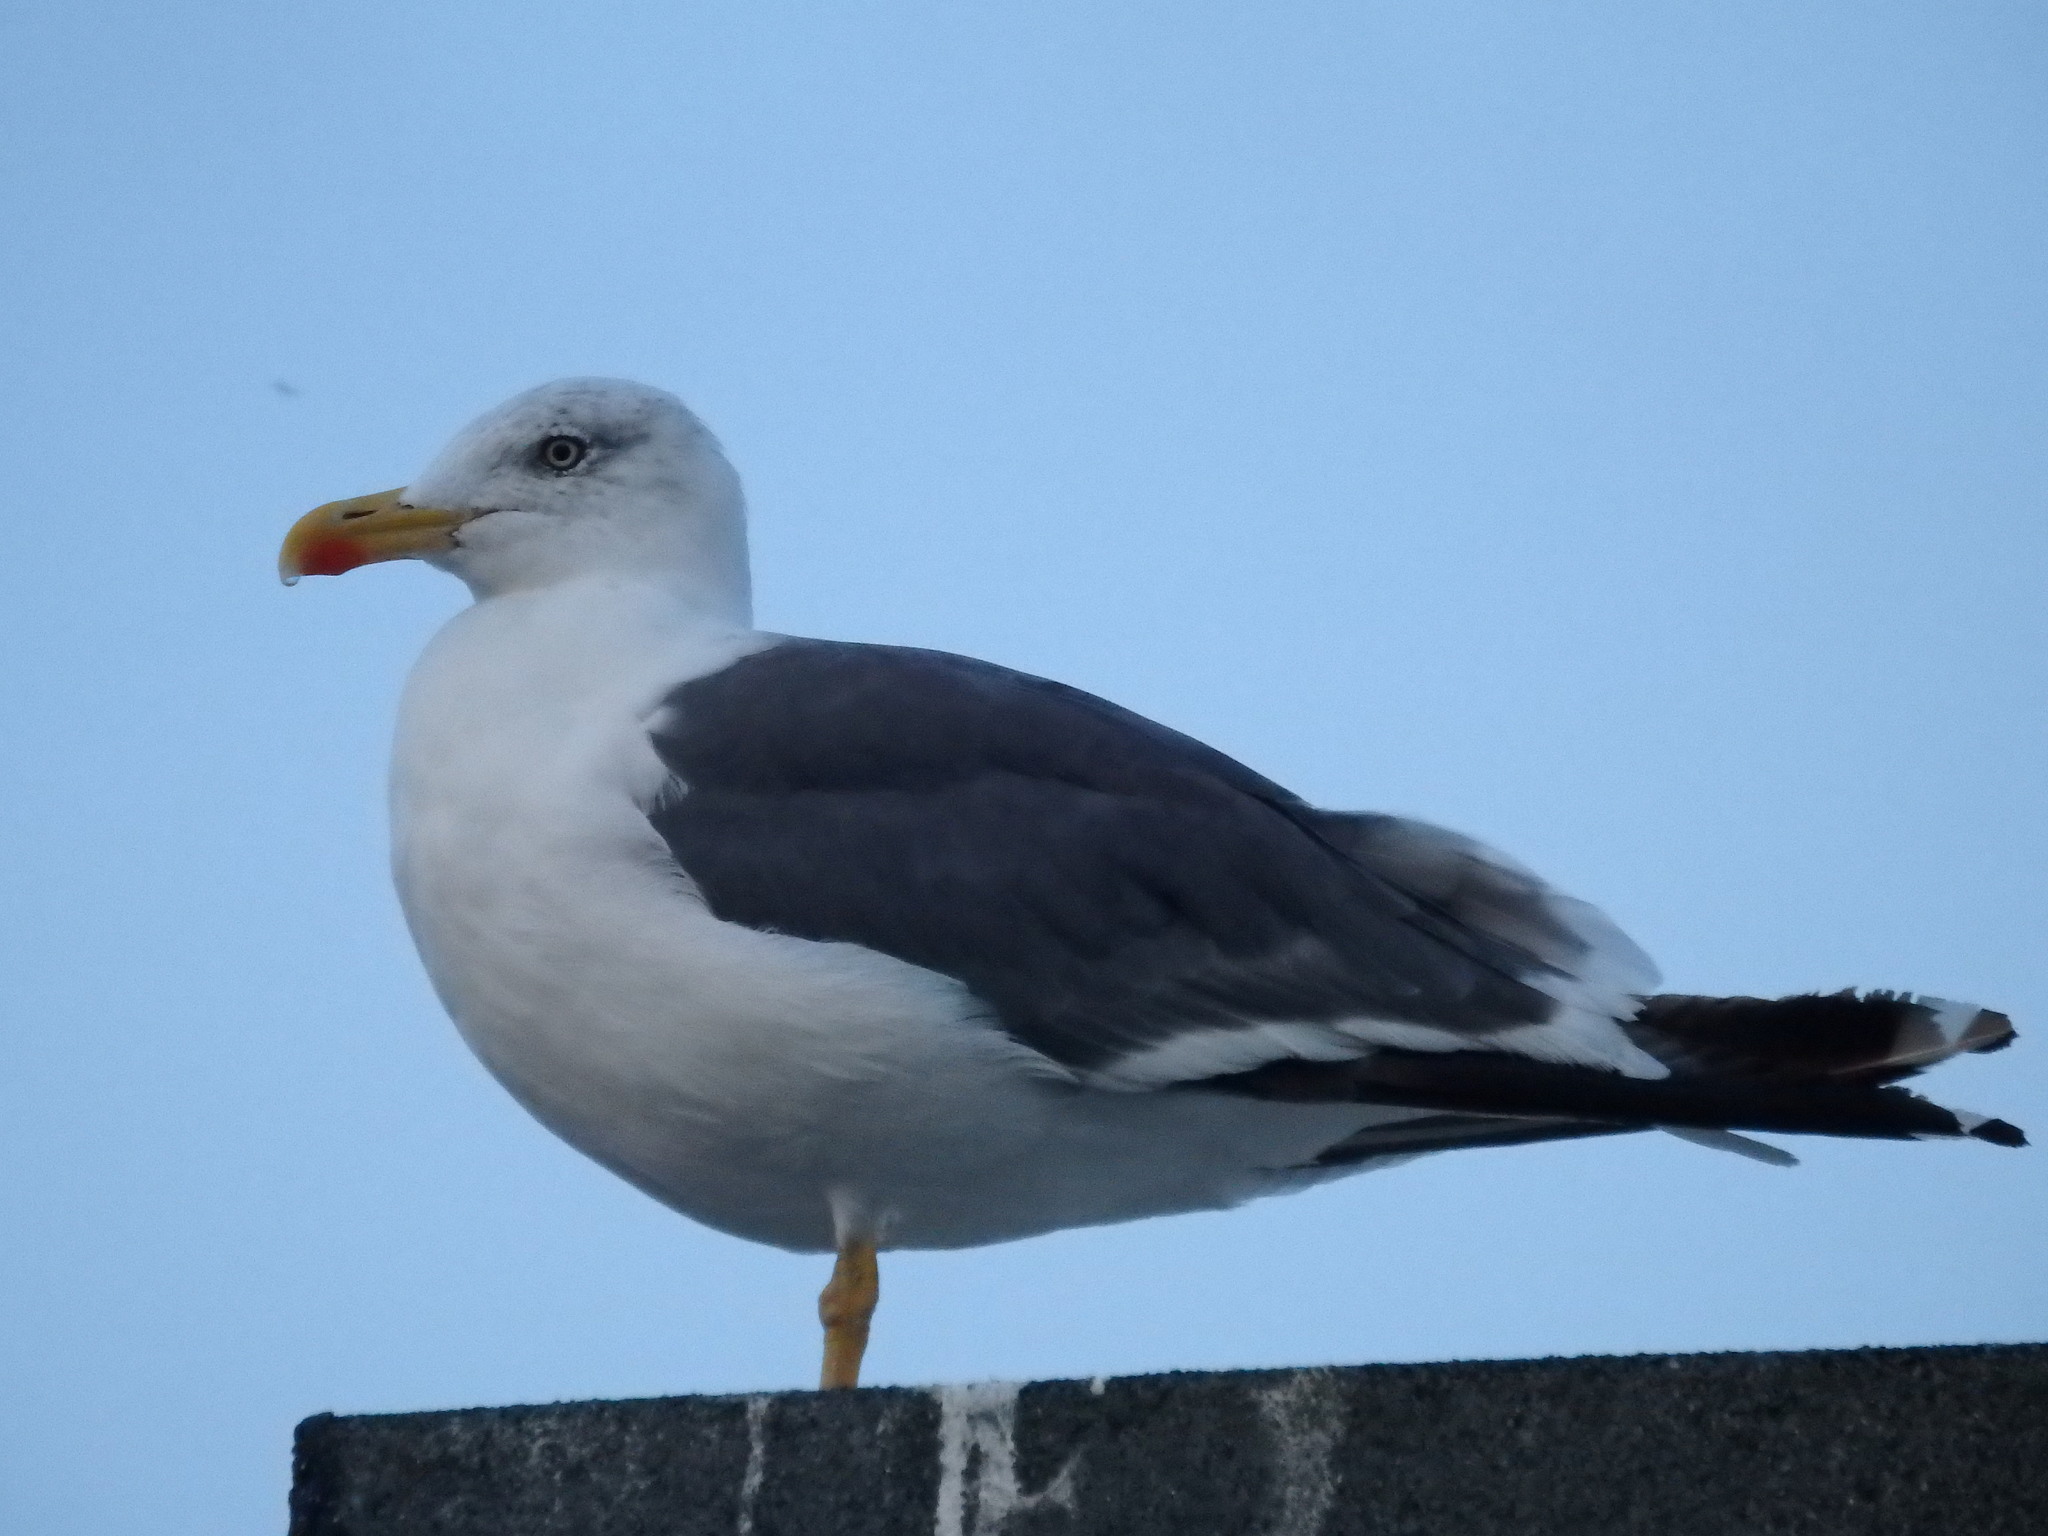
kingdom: Animalia
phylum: Chordata
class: Aves
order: Charadriiformes
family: Laridae
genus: Larus
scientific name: Larus fuscus
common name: Lesser black-backed gull
